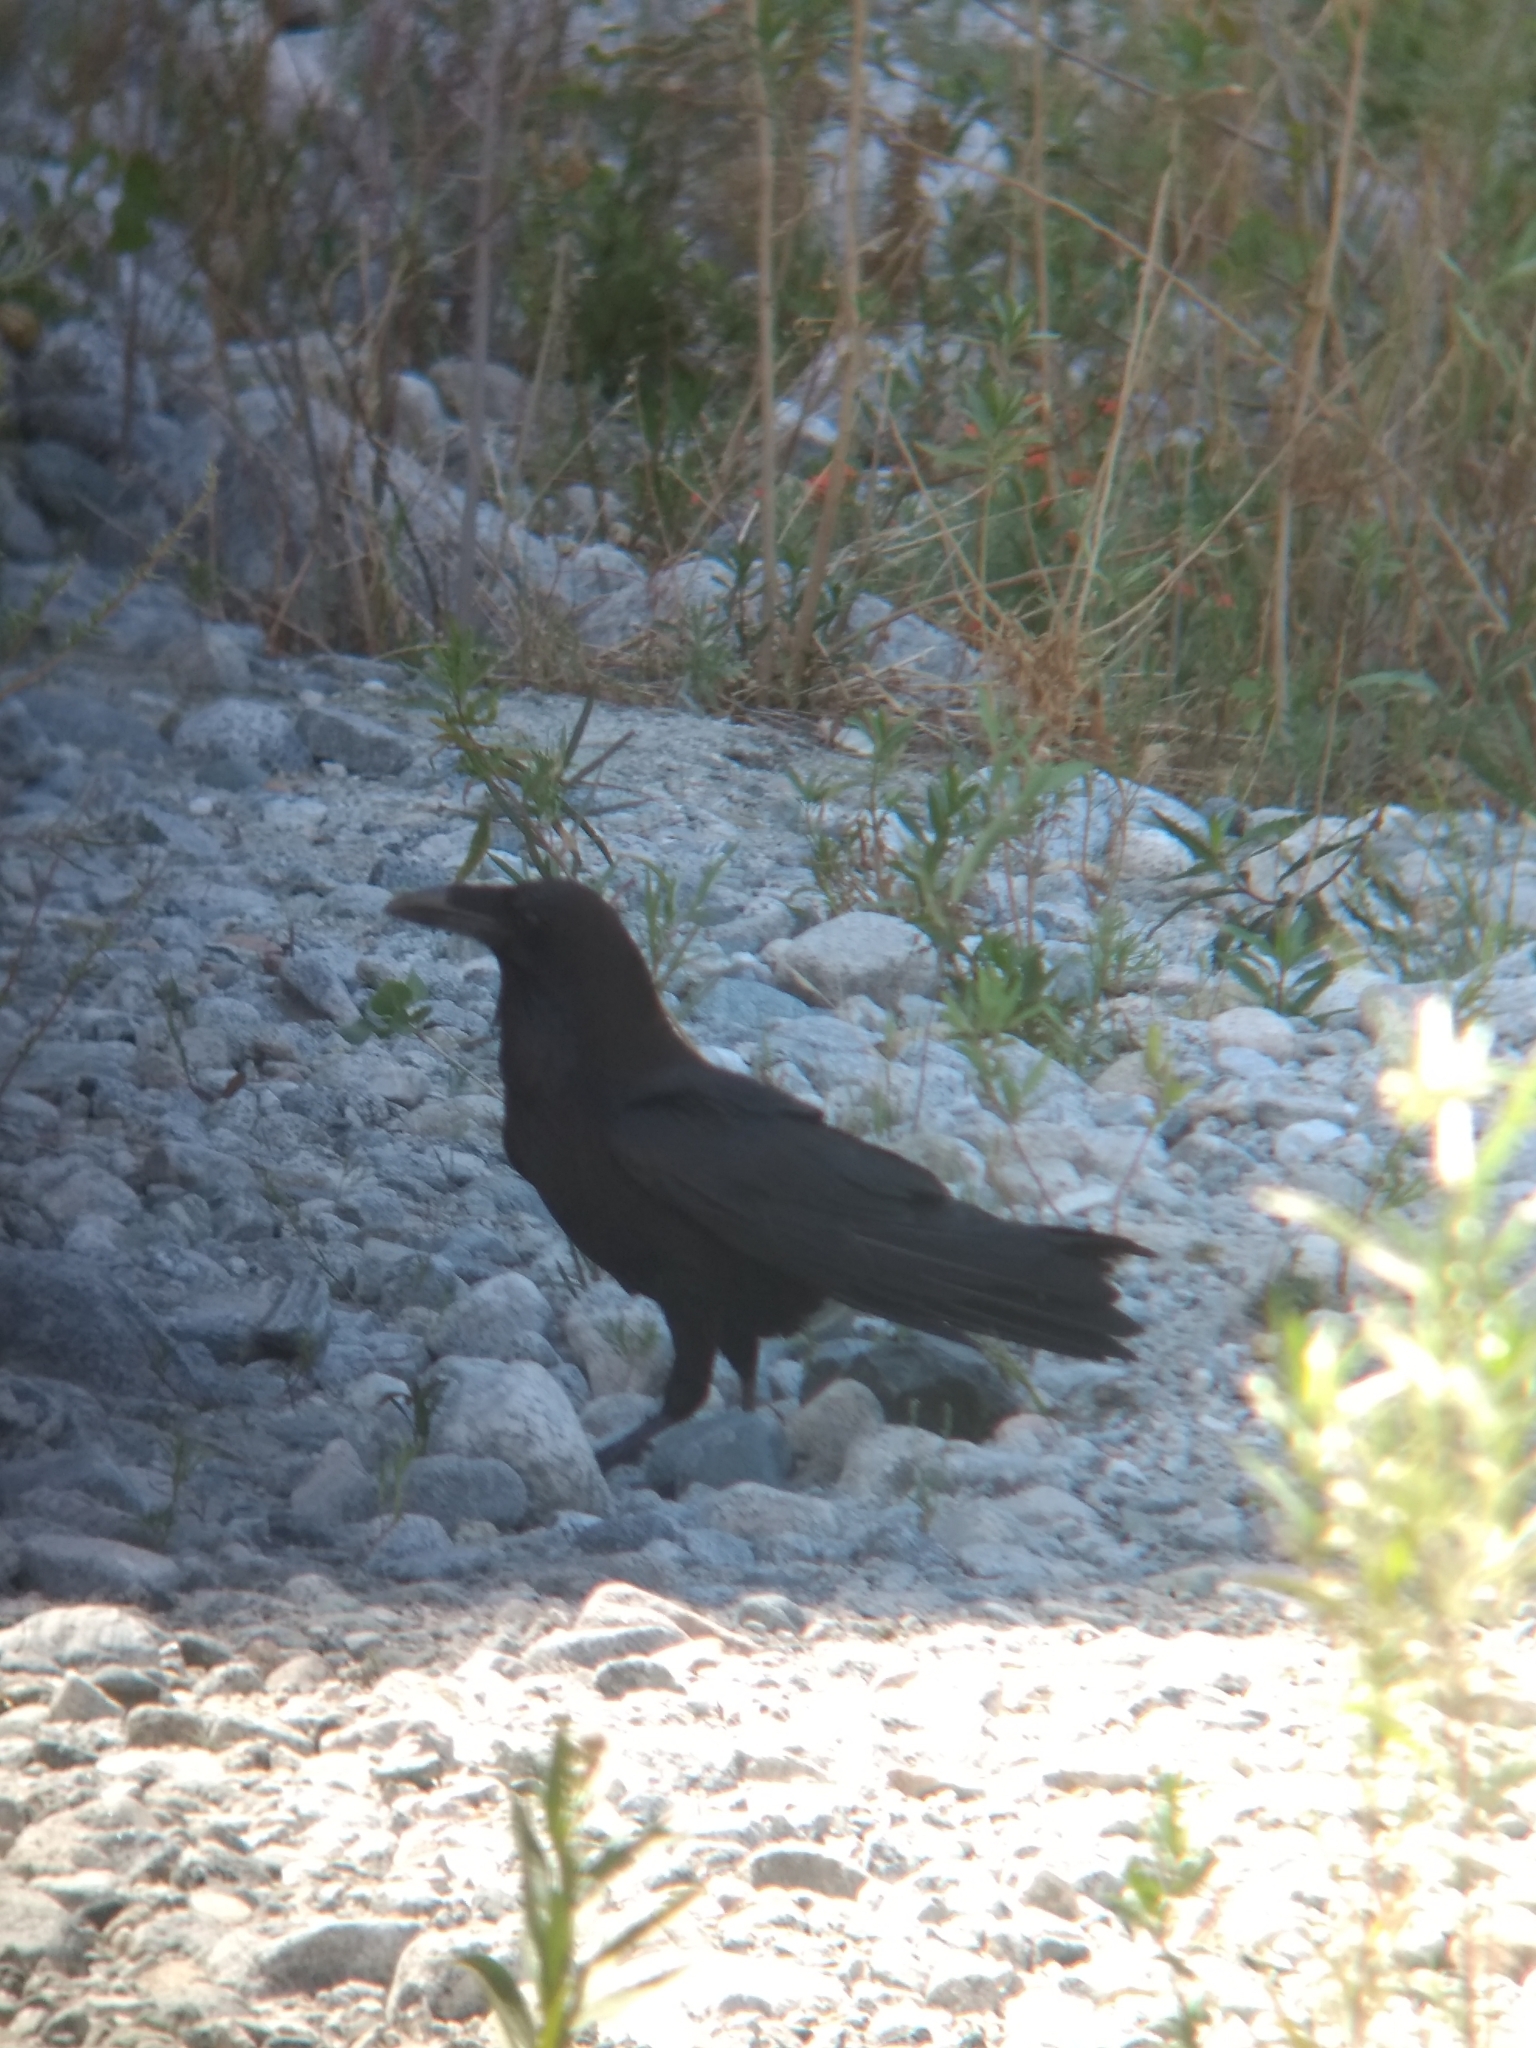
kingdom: Animalia
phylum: Chordata
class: Aves
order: Passeriformes
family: Corvidae
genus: Corvus
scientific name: Corvus corax
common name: Common raven
